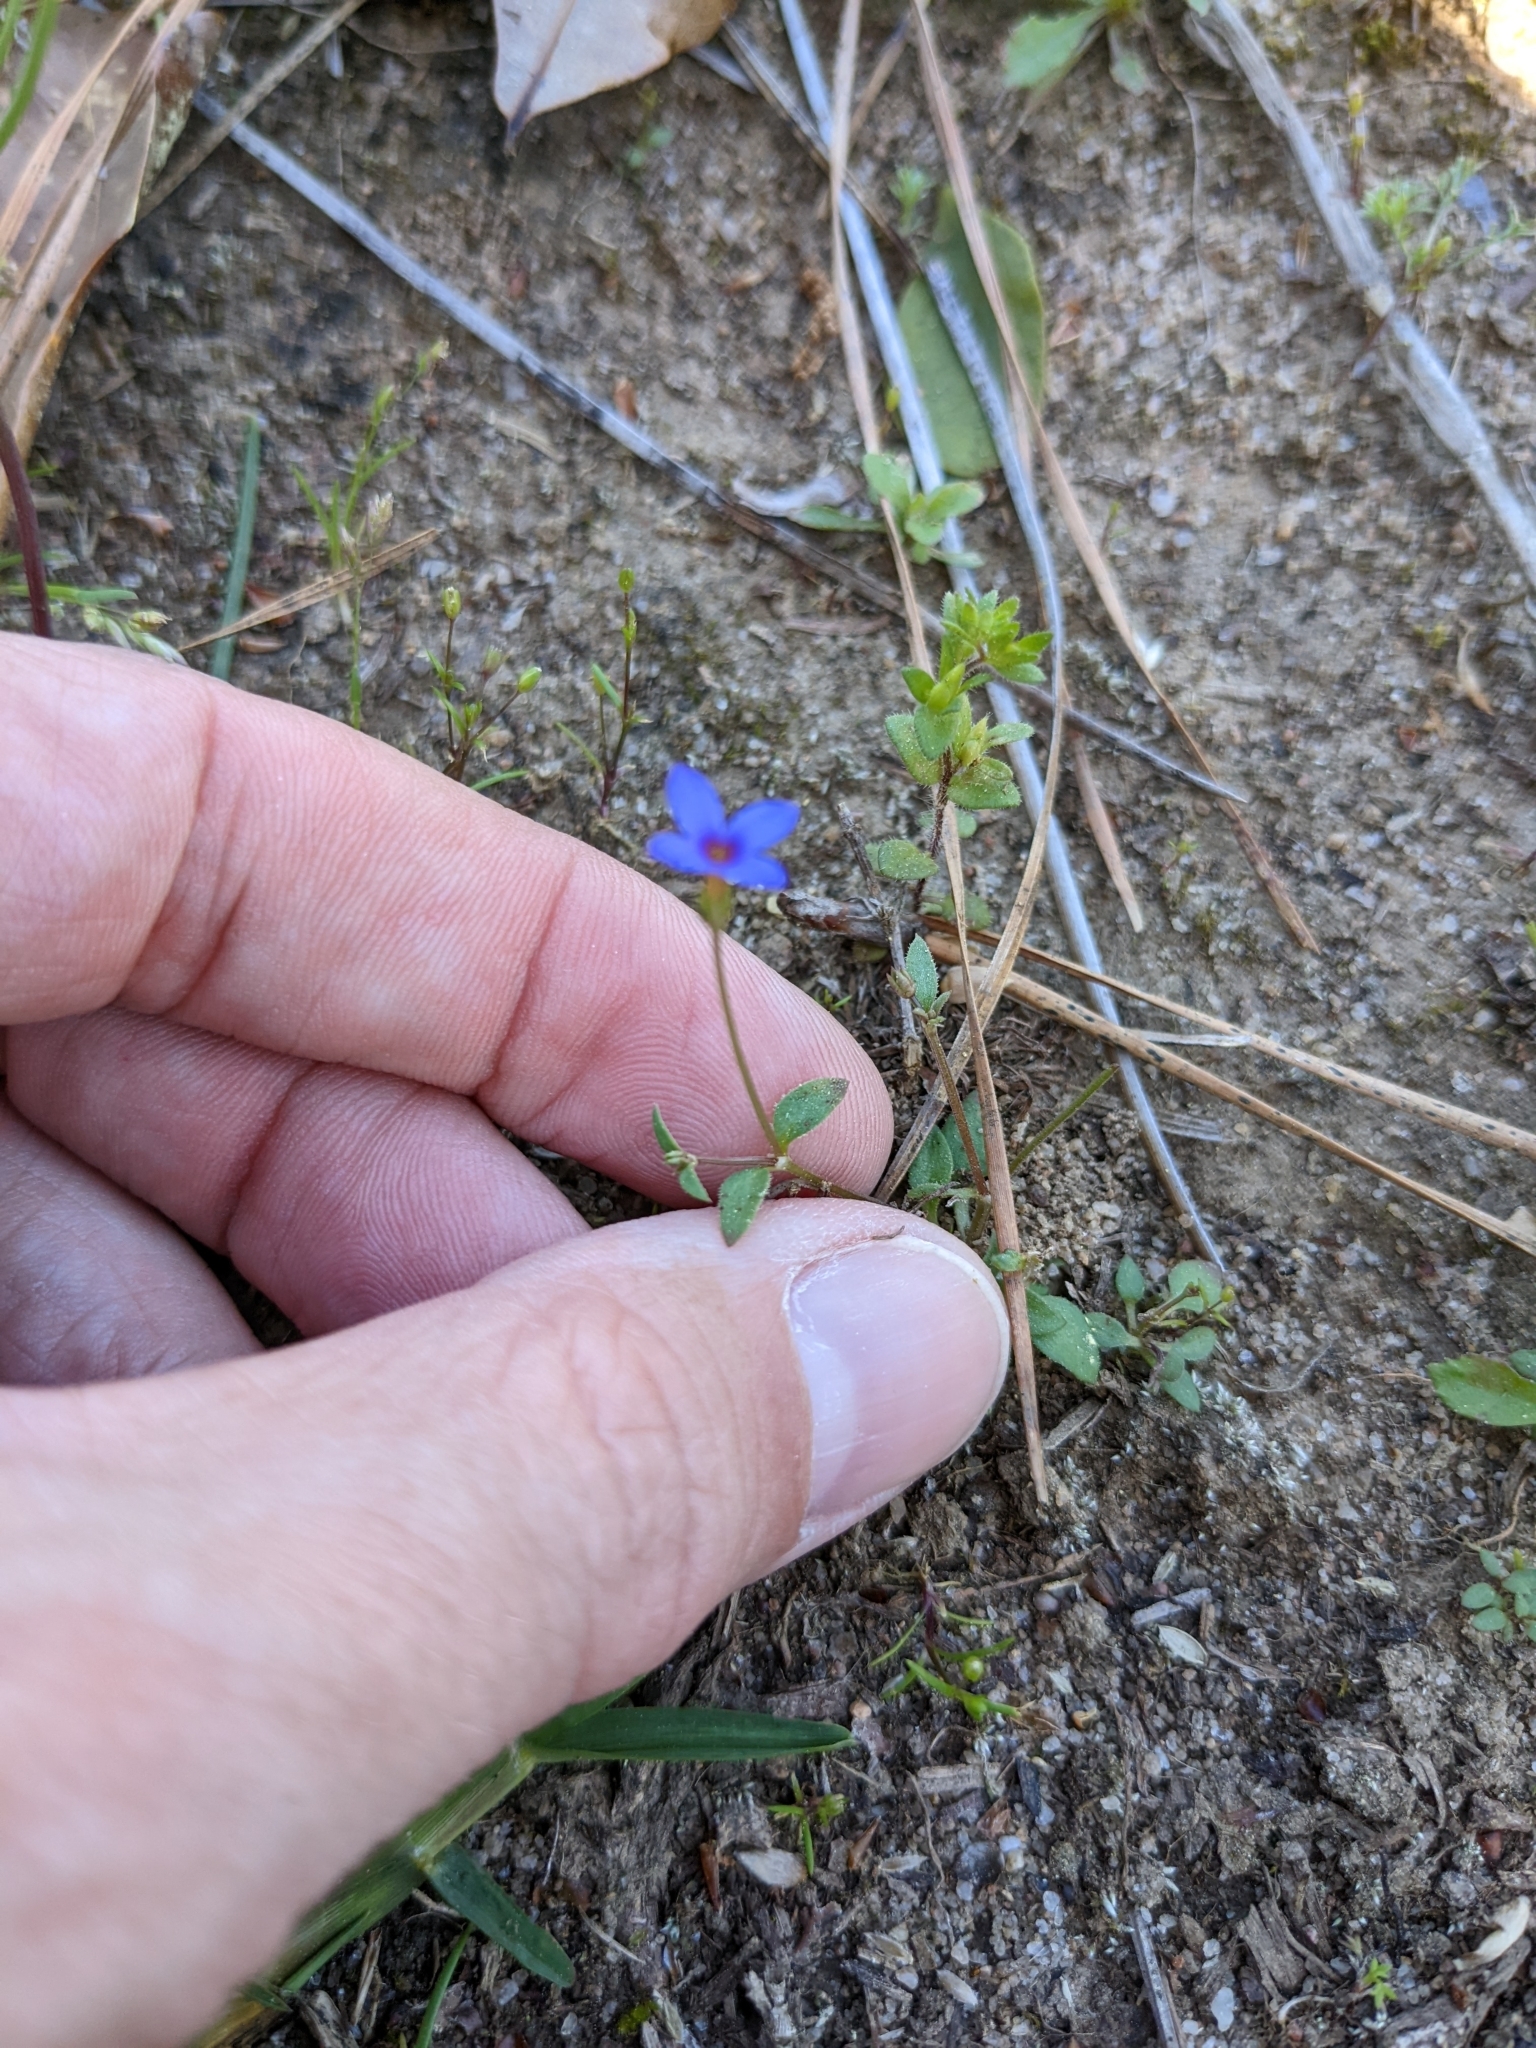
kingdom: Plantae
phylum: Tracheophyta
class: Magnoliopsida
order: Gentianales
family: Rubiaceae
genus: Houstonia
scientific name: Houstonia pusilla
